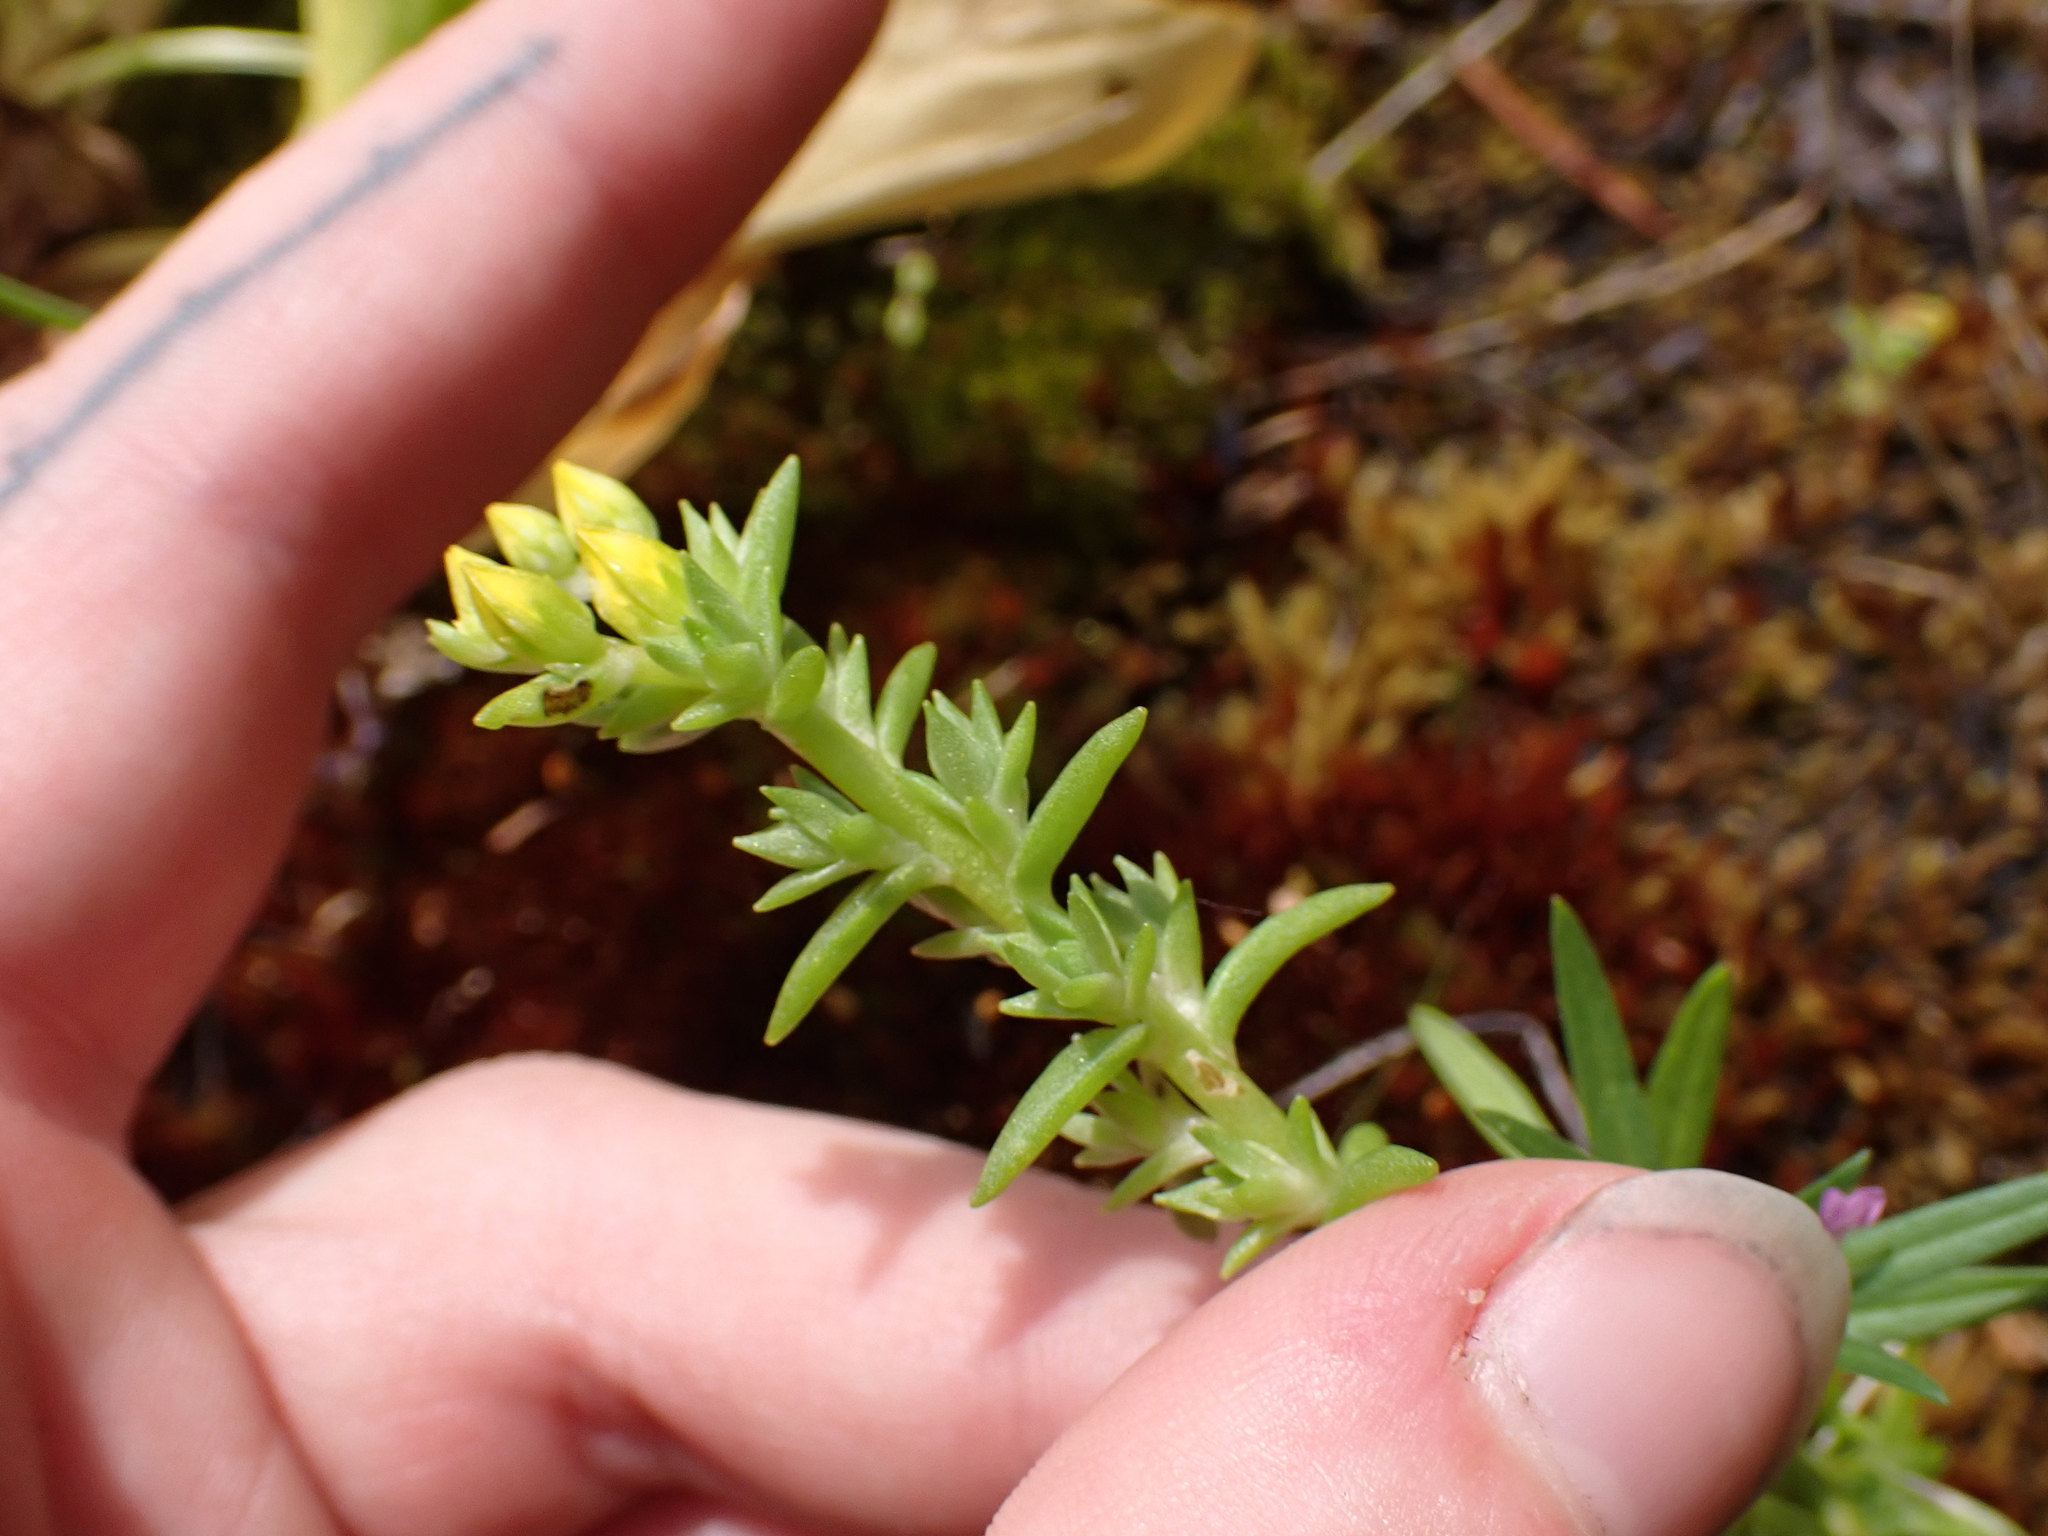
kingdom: Plantae
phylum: Tracheophyta
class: Magnoliopsida
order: Saxifragales
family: Crassulaceae
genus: Sedum
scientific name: Sedum stenopetalum
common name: Narrow-petaled stonecrop
